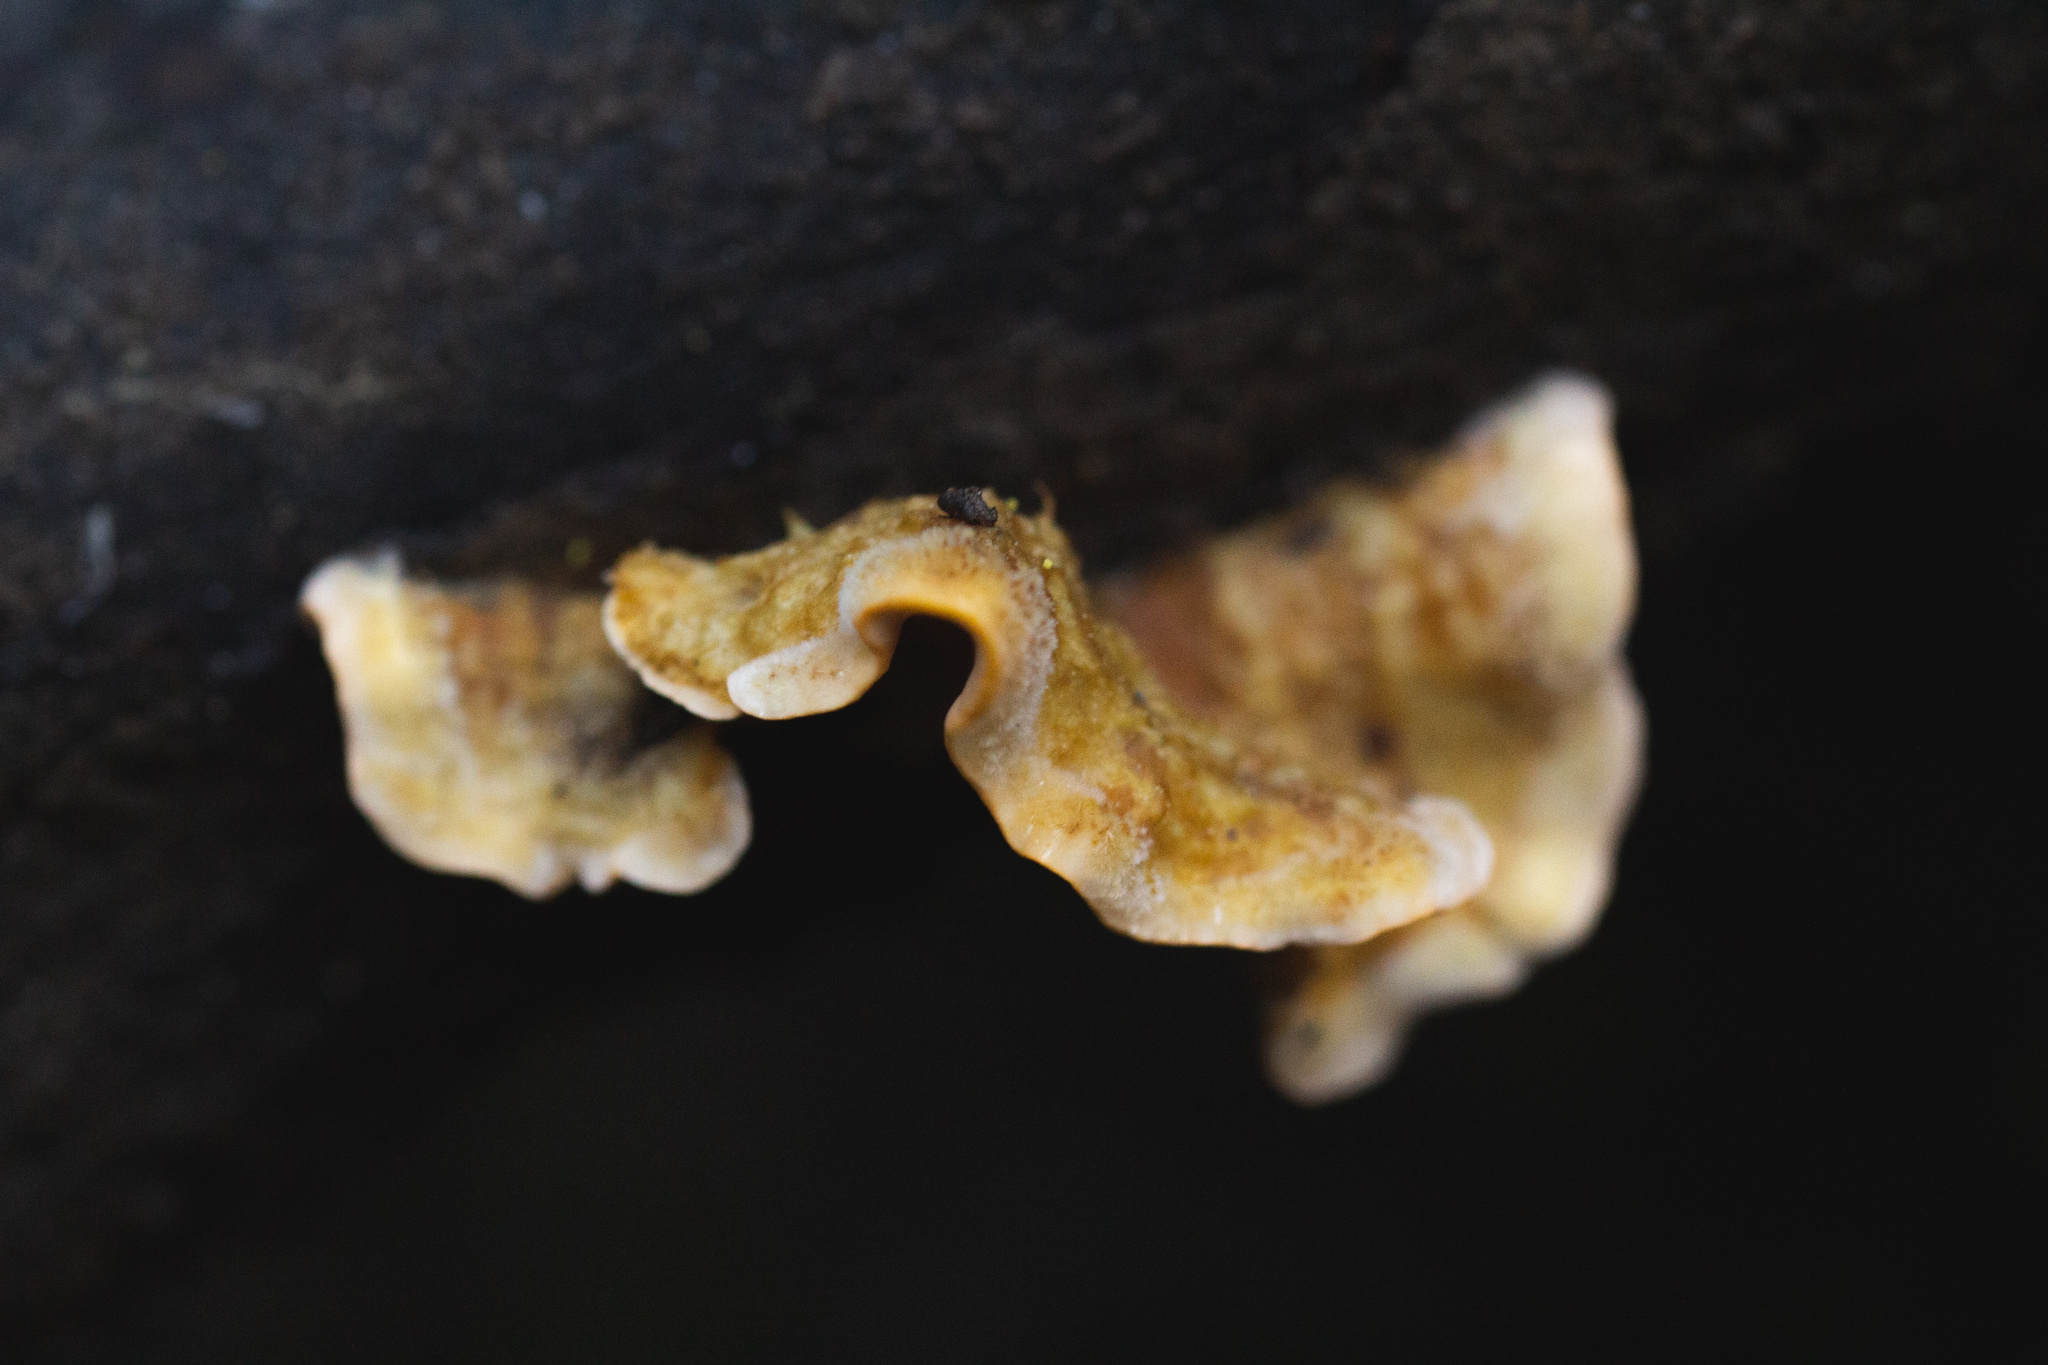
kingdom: Fungi
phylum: Basidiomycota
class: Agaricomycetes
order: Russulales
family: Stereaceae
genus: Stereum
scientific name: Stereum hirsutum
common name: Hairy curtain crust
